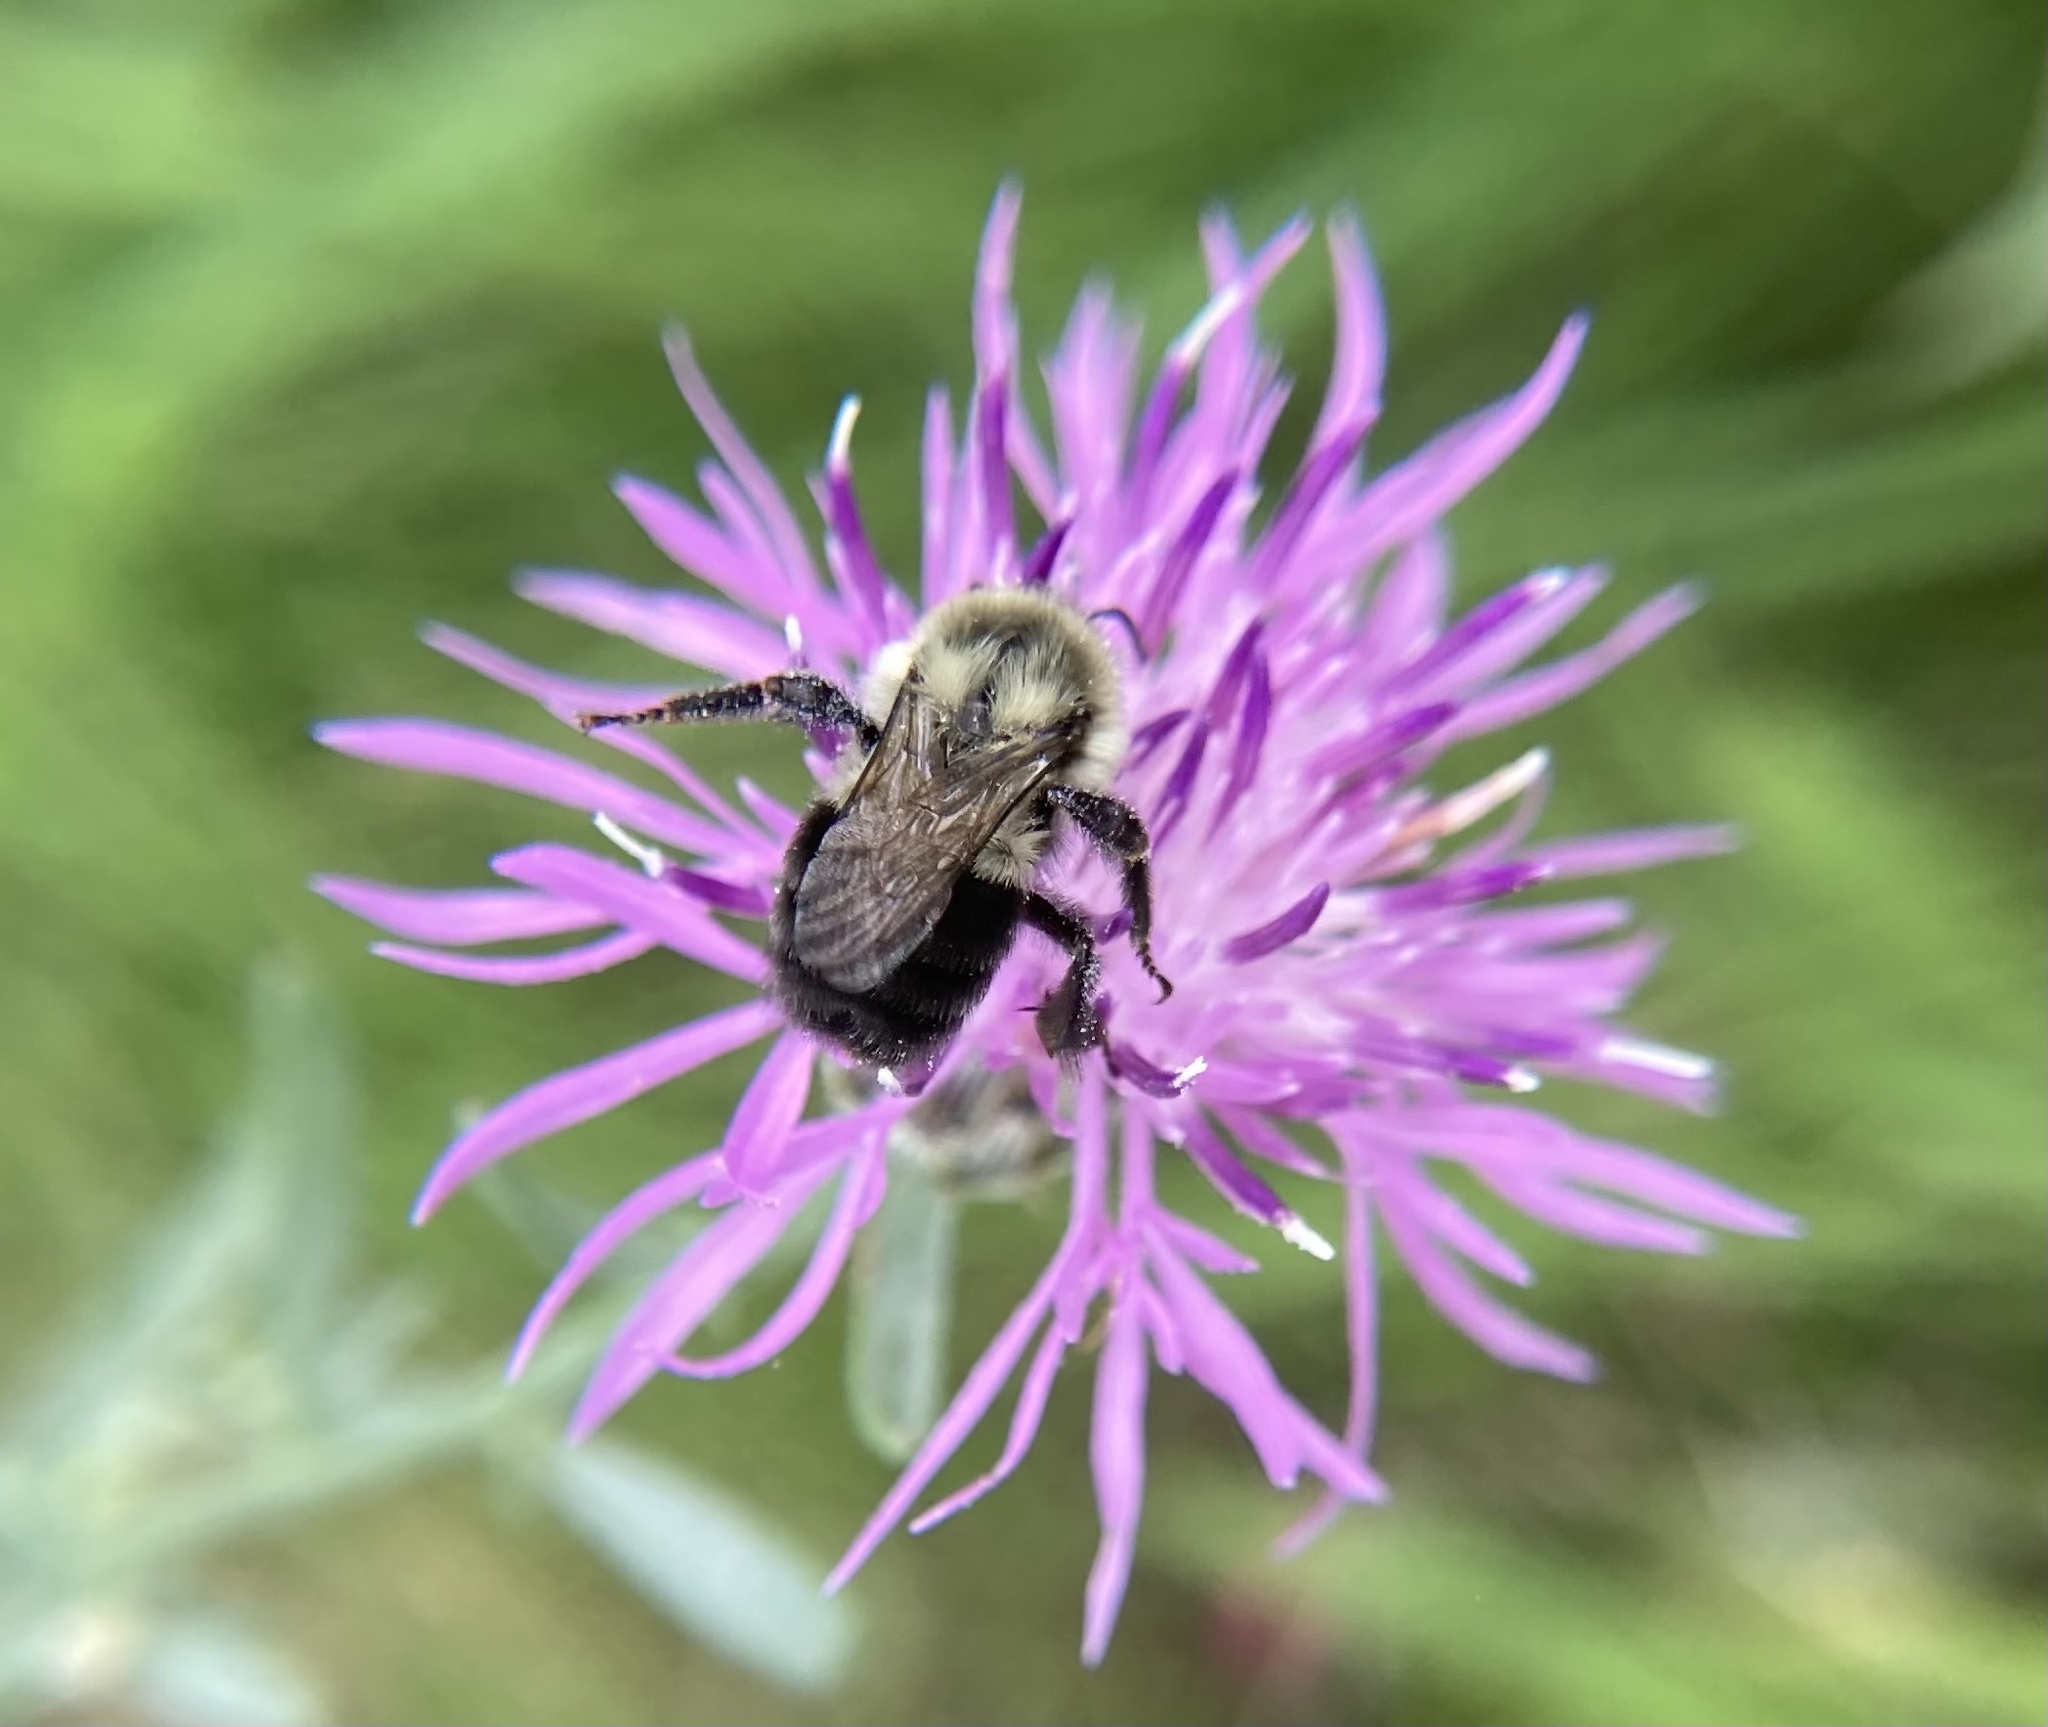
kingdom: Animalia
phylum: Arthropoda
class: Insecta
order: Hymenoptera
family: Apidae
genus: Bombus
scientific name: Bombus impatiens
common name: Common eastern bumble bee
